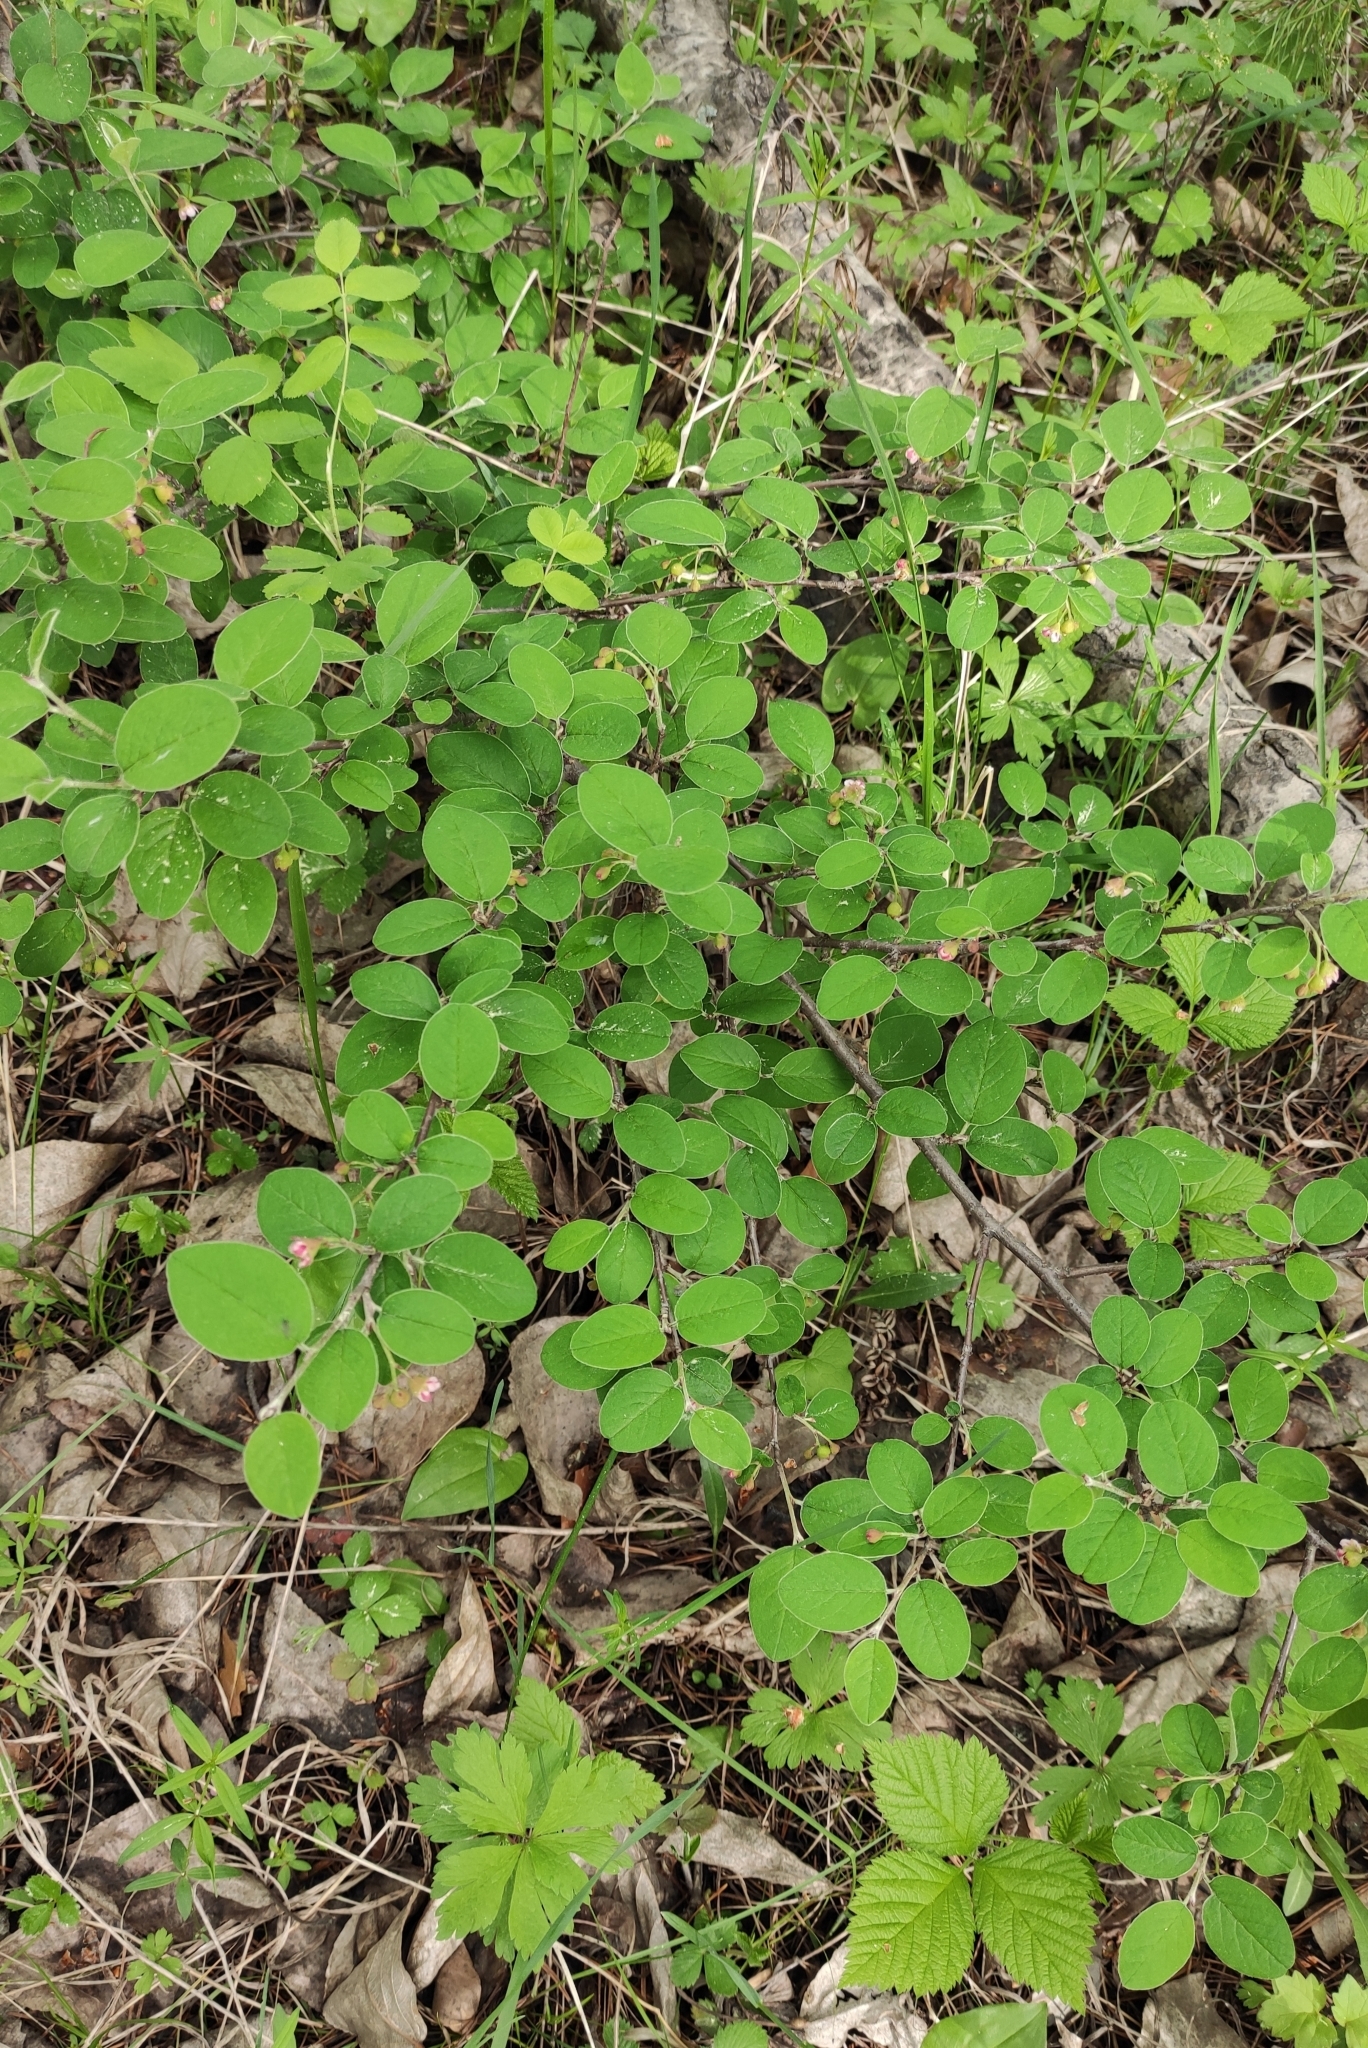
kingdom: Plantae
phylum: Tracheophyta
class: Magnoliopsida
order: Rosales
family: Rosaceae
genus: Cotoneaster
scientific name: Cotoneaster melanocarpus
